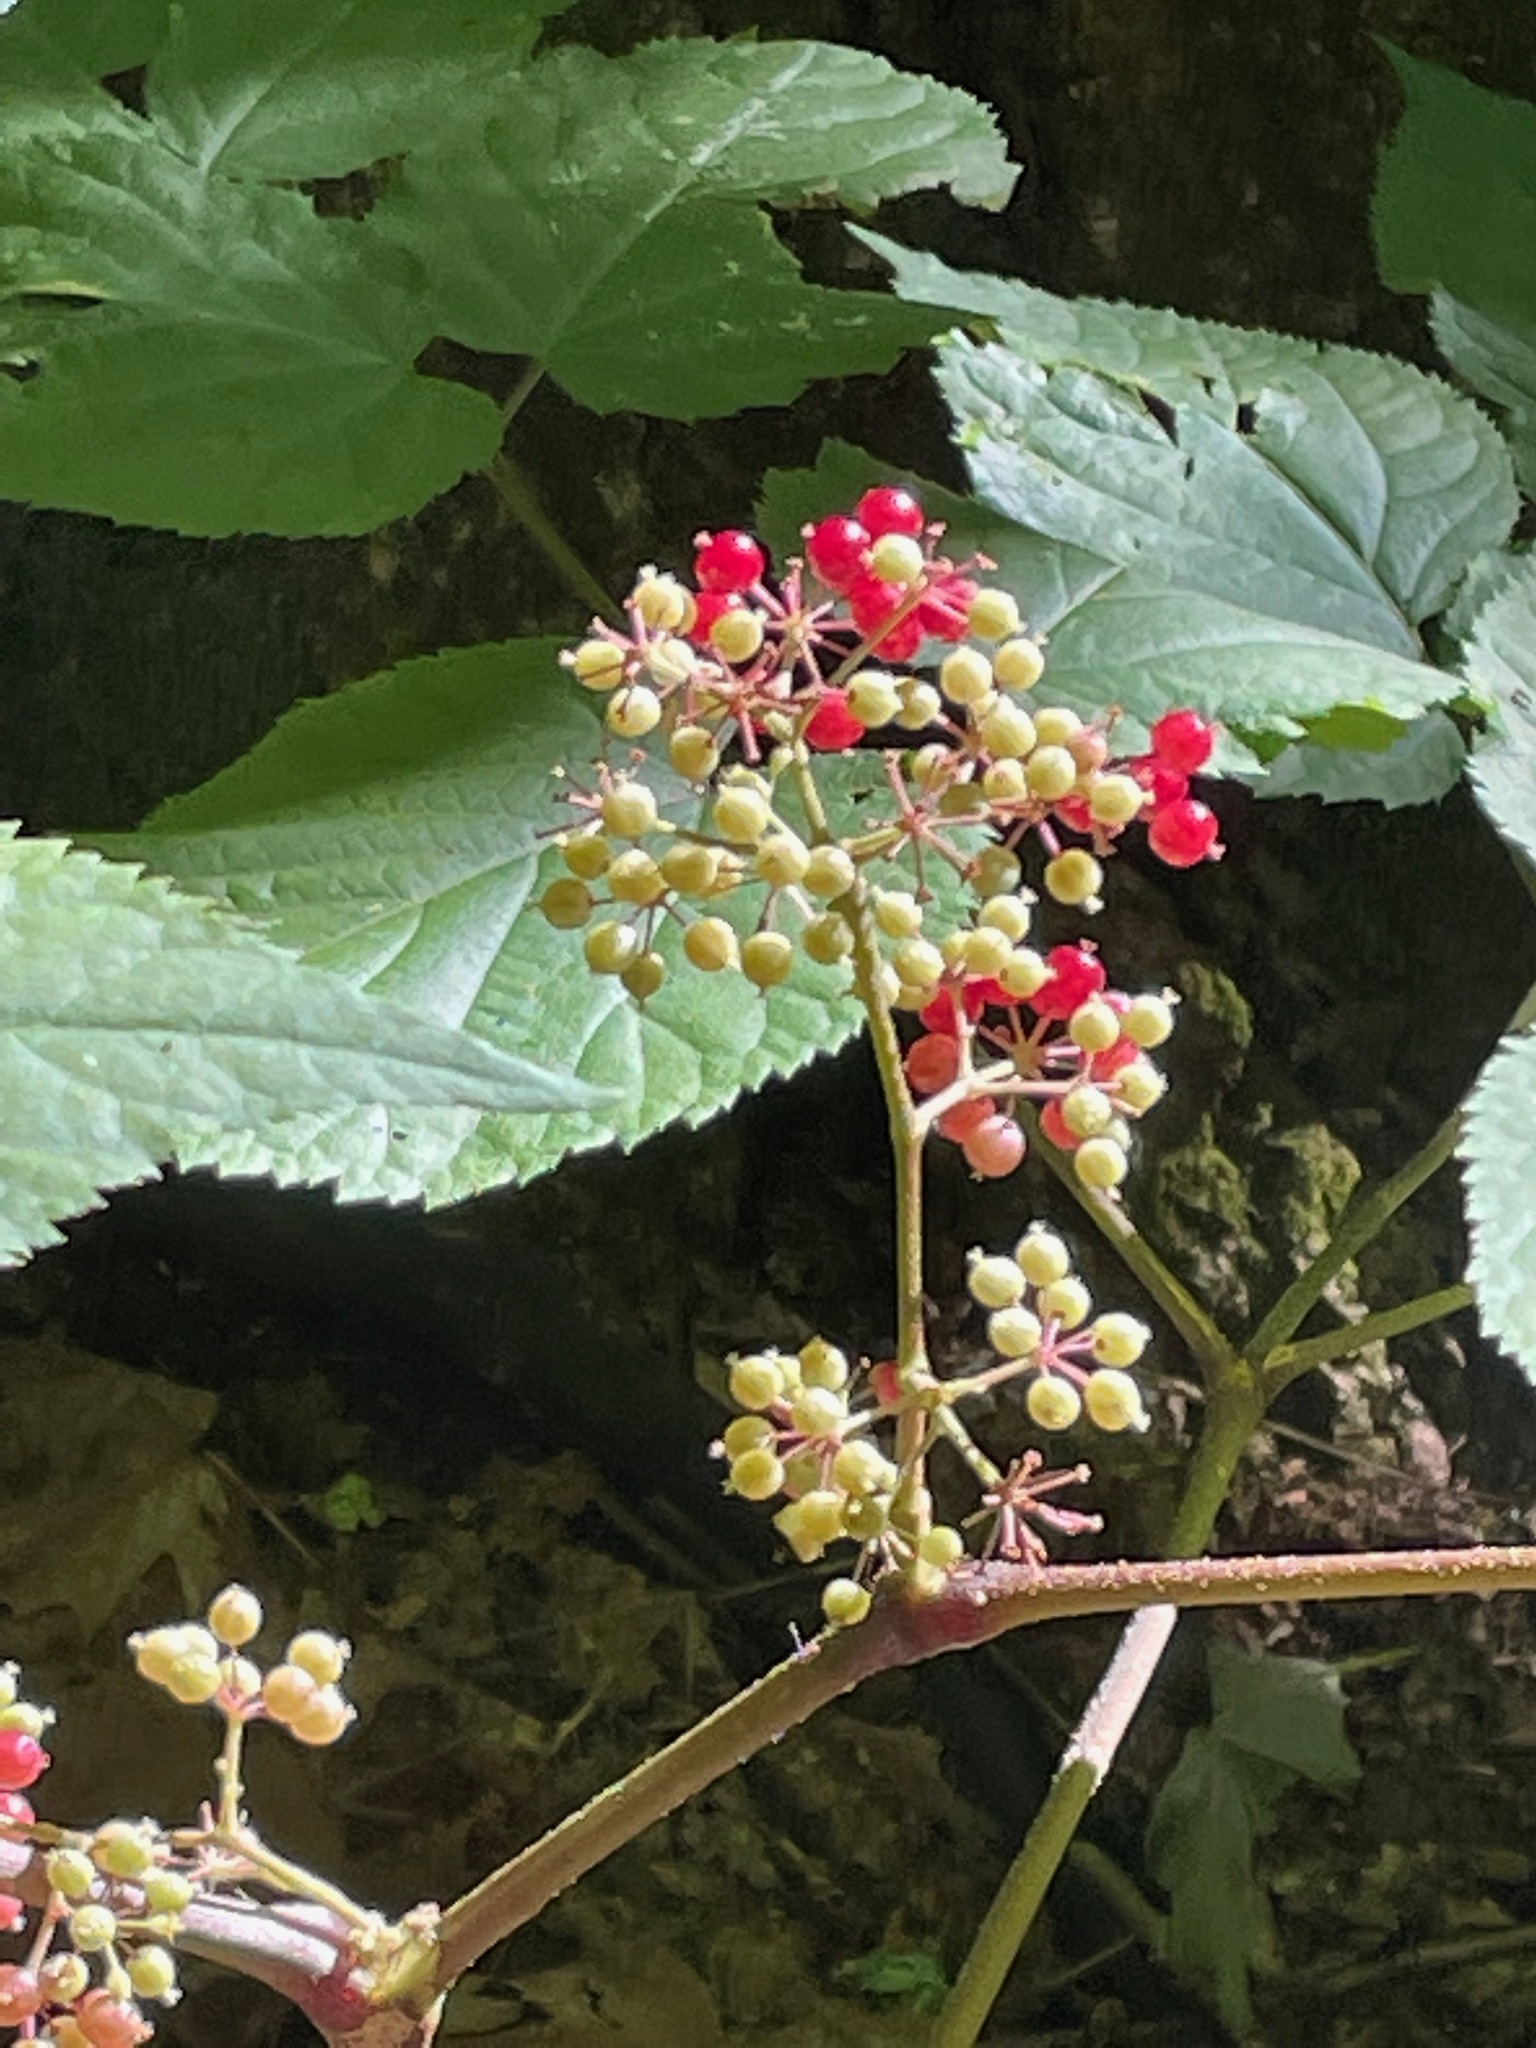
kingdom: Plantae
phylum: Tracheophyta
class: Magnoliopsida
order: Apiales
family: Araliaceae
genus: Aralia
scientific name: Aralia racemosa
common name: American-spikenard
